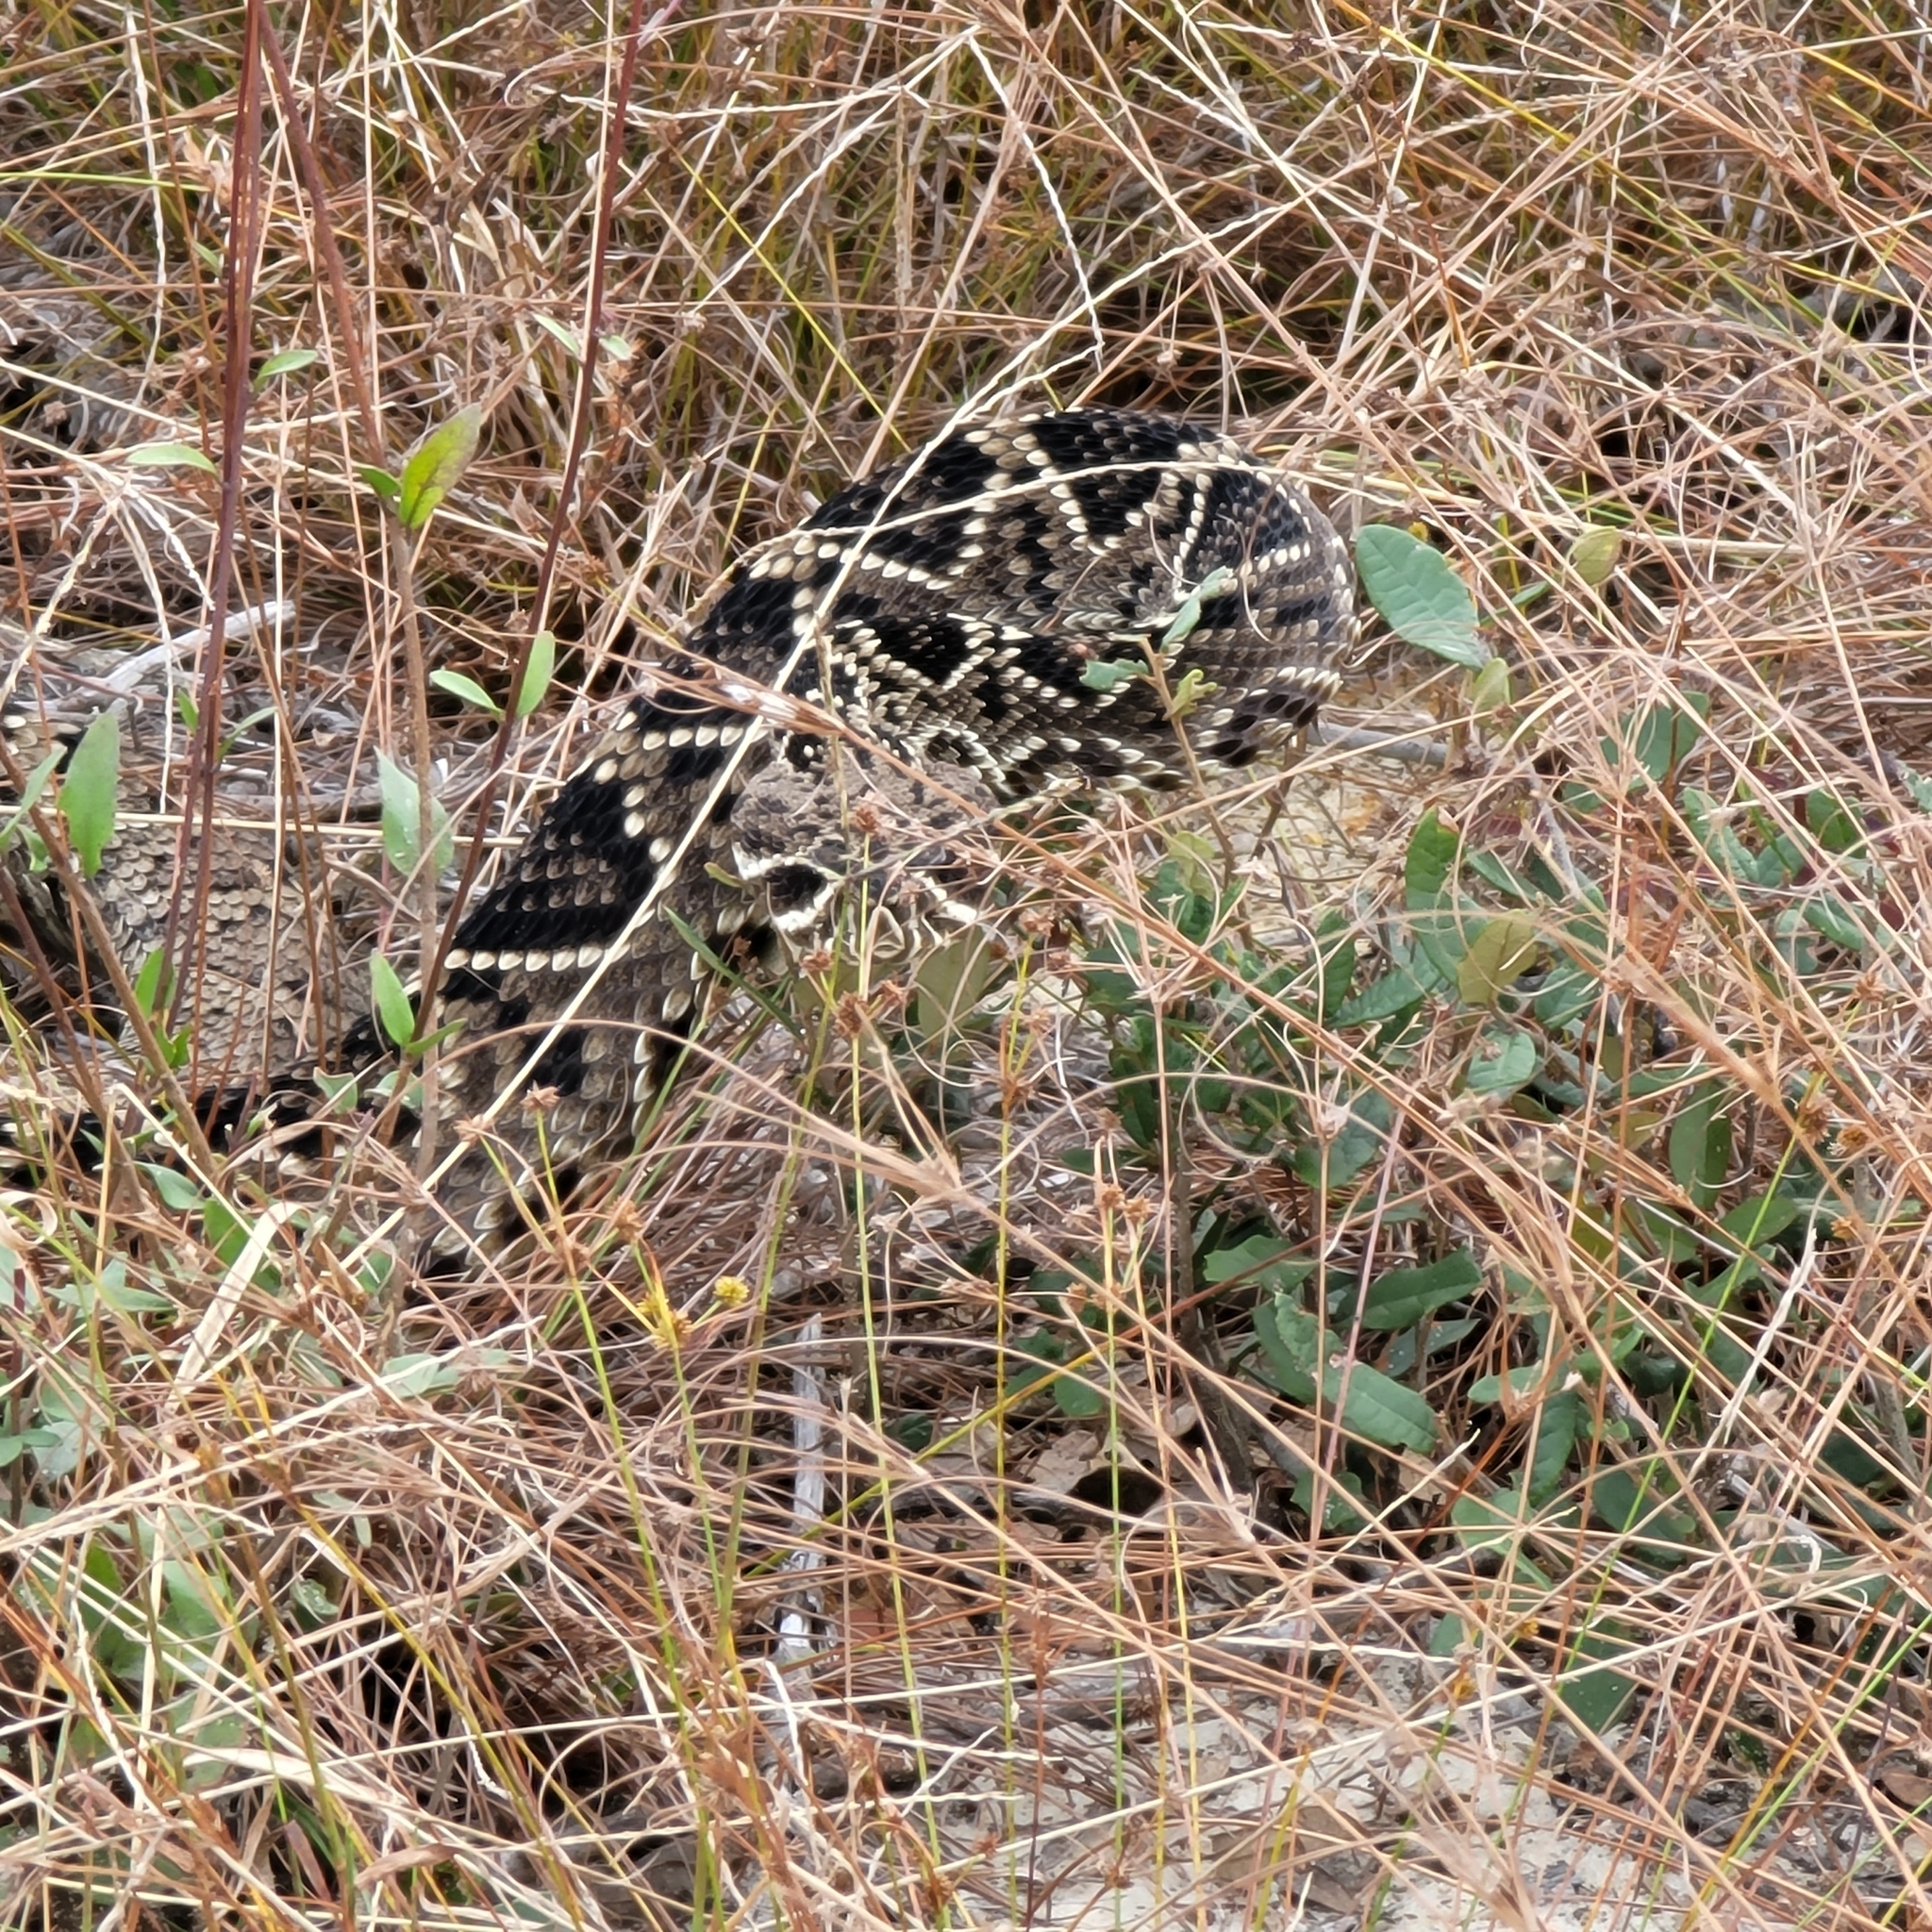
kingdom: Animalia
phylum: Chordata
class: Squamata
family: Viperidae
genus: Crotalus
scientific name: Crotalus adamanteus
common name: Eastern diamondback rattlesnake
